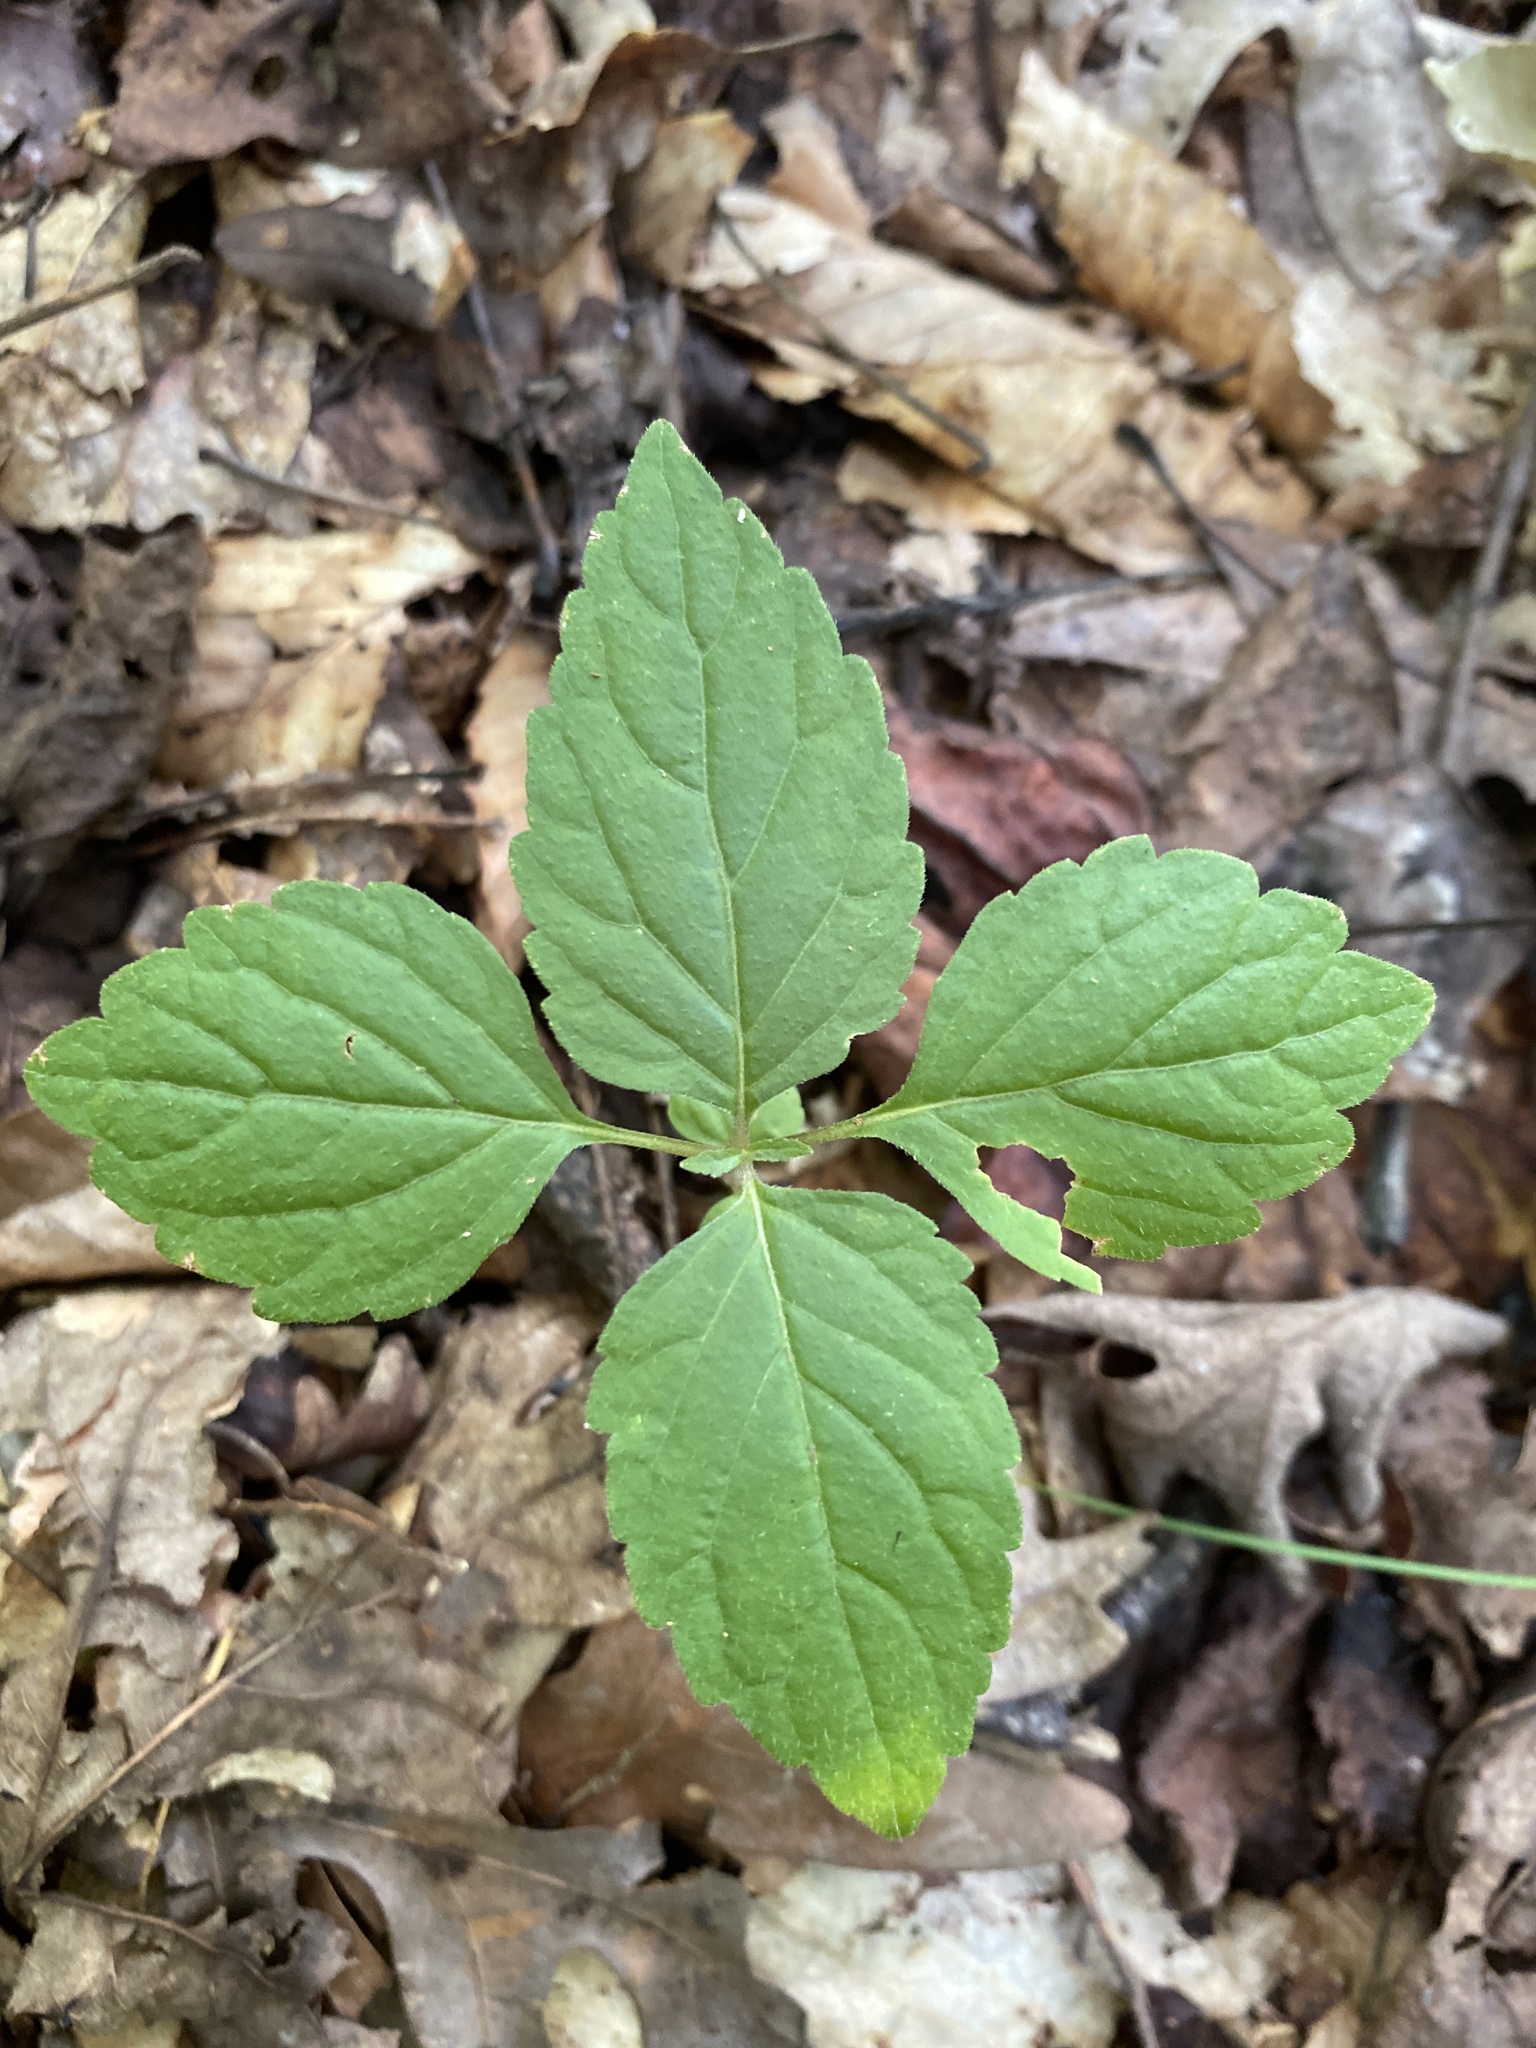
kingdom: Plantae
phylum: Tracheophyta
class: Magnoliopsida
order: Lamiales
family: Phrymaceae
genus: Phryma
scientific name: Phryma leptostachya
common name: American lopseed
